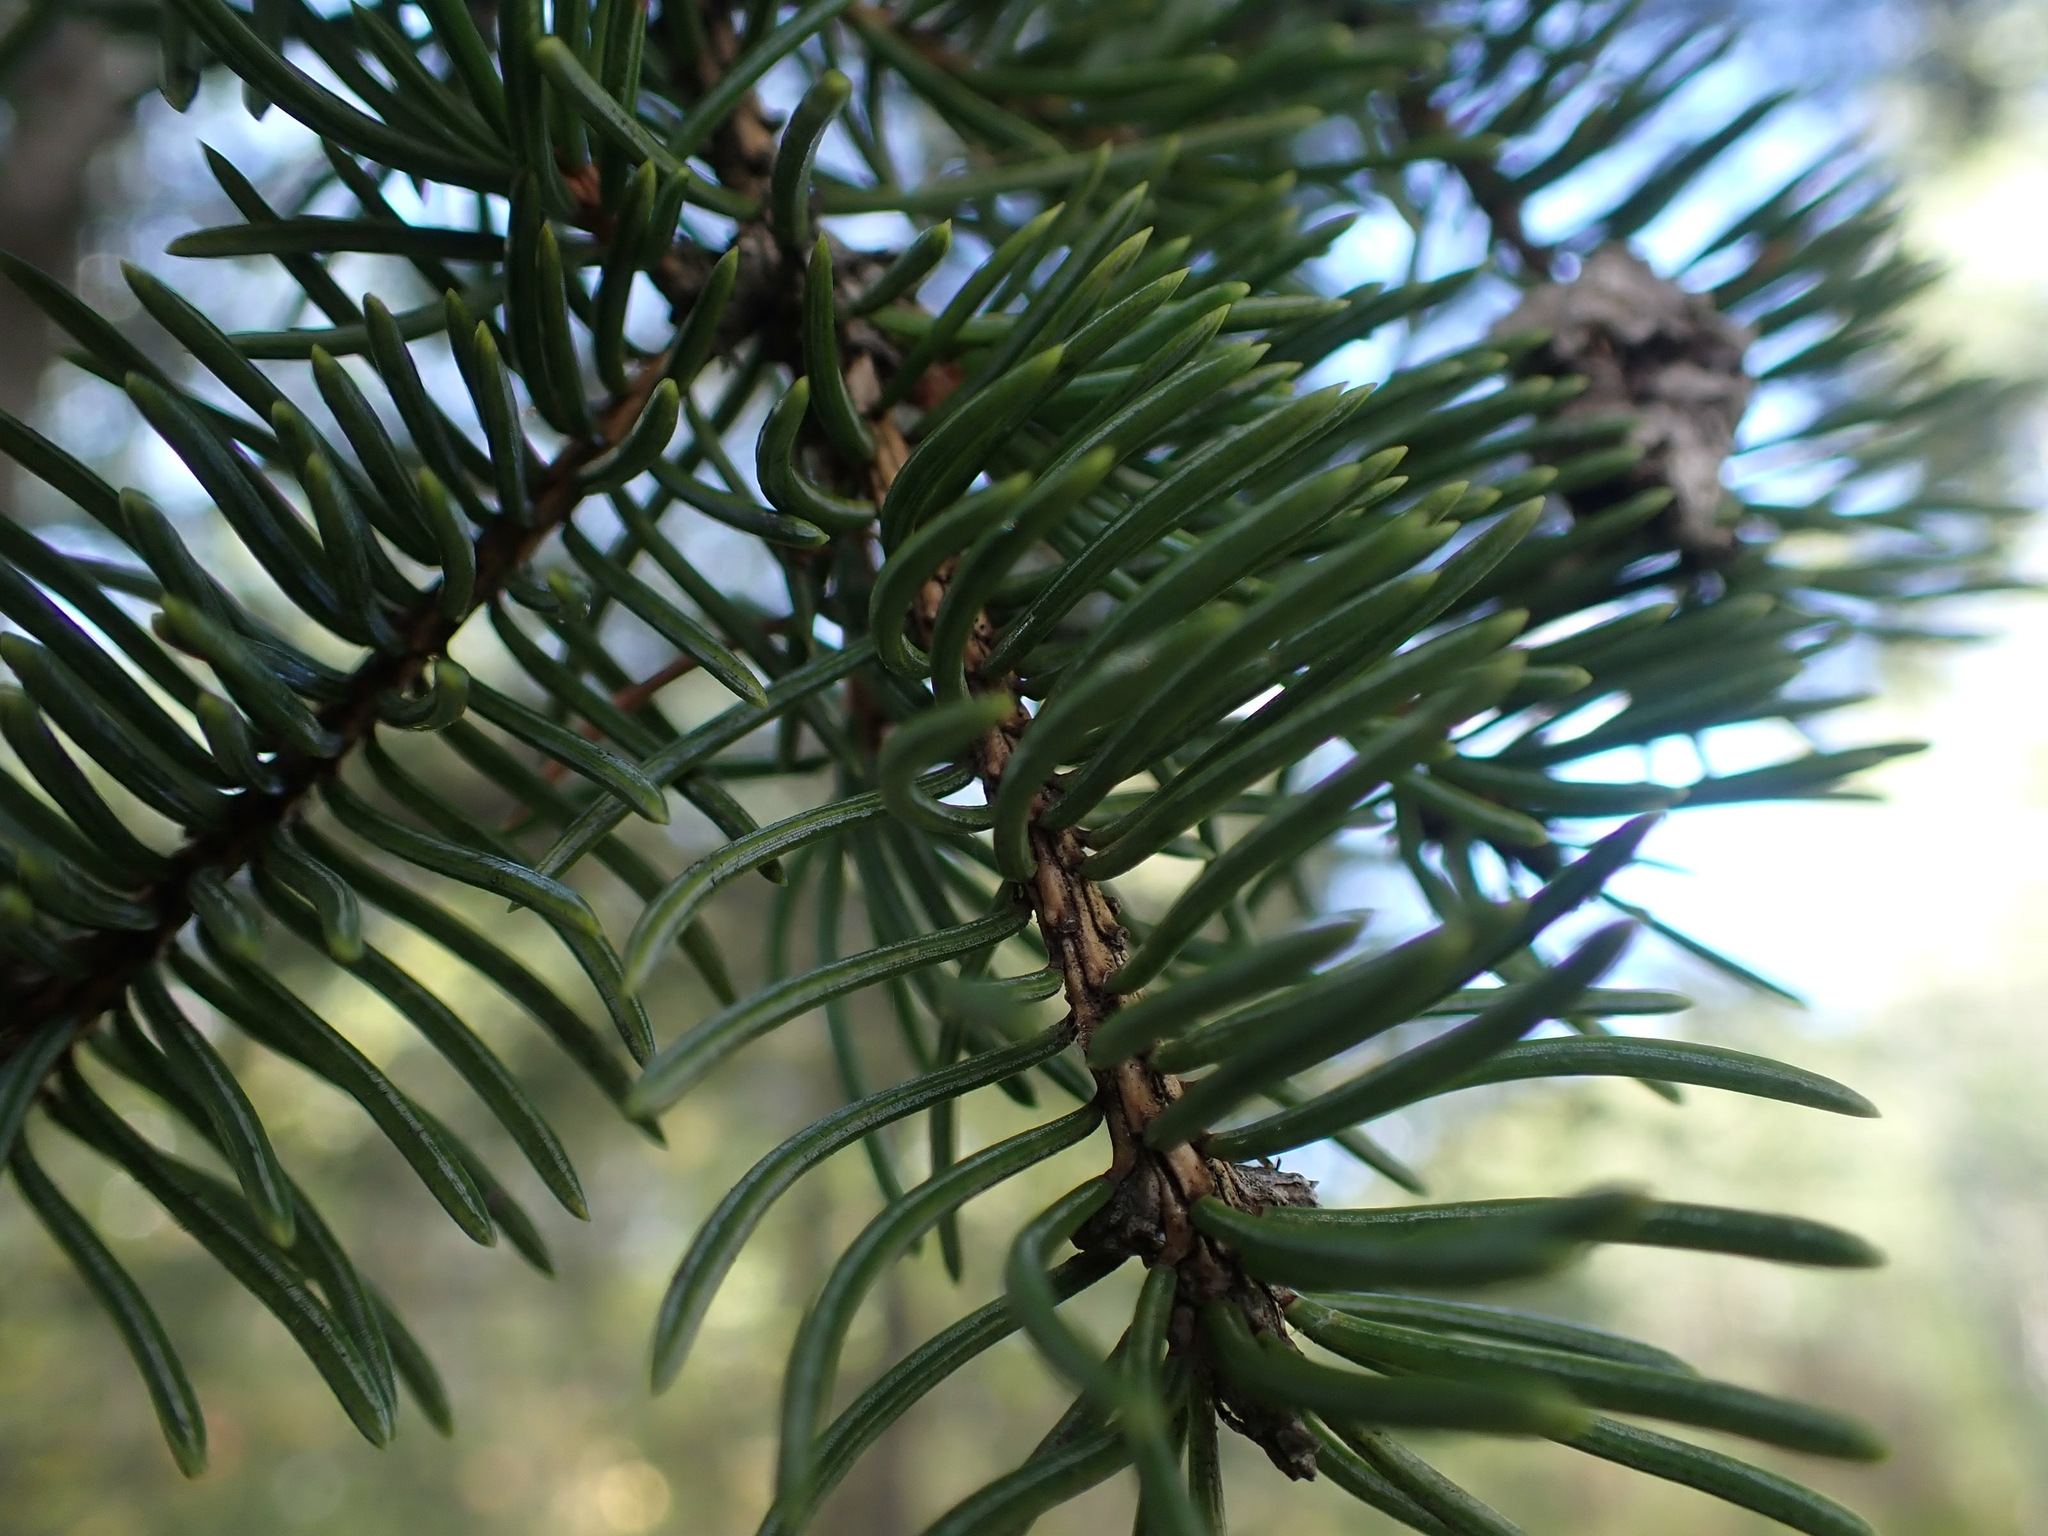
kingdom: Plantae
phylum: Tracheophyta
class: Pinopsida
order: Pinales
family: Pinaceae
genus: Picea
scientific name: Picea glauca
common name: White spruce
